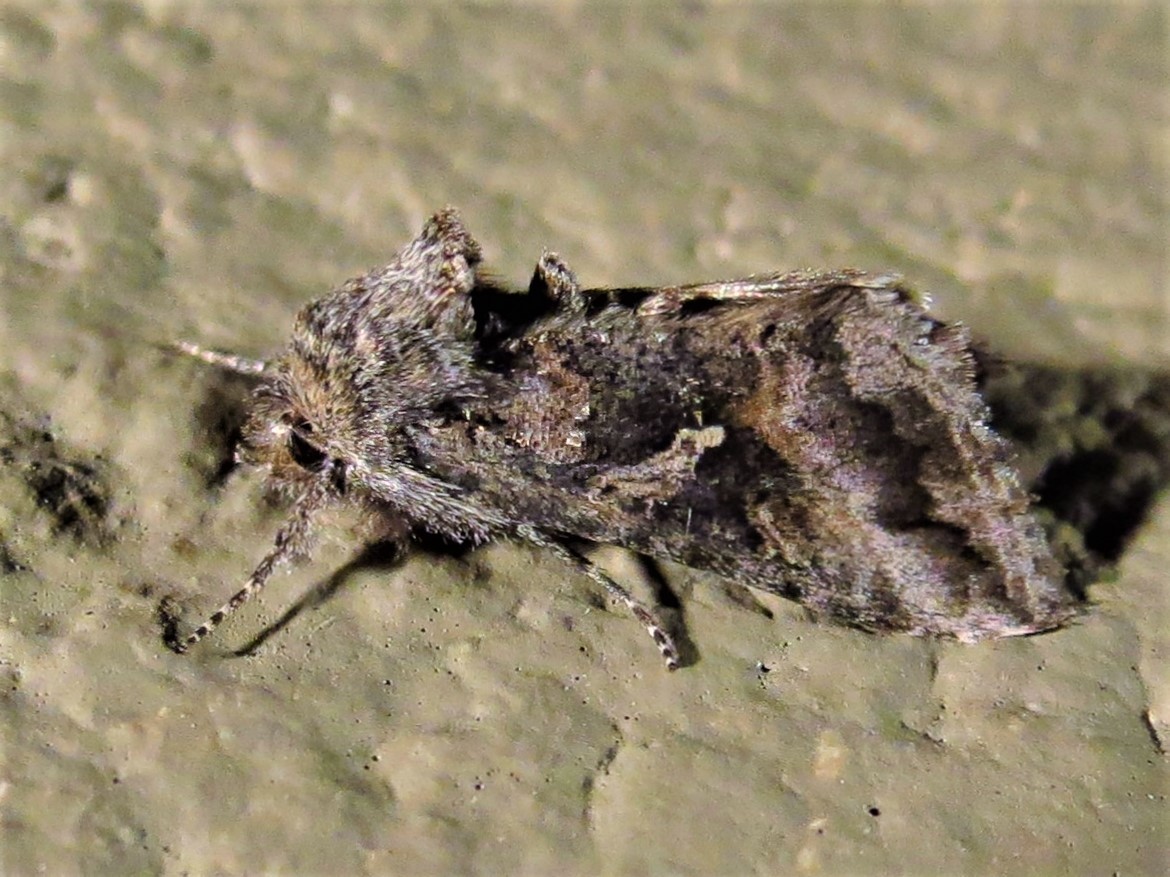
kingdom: Animalia
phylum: Arthropoda
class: Insecta
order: Lepidoptera
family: Noctuidae
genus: Rachiplusia
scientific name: Rachiplusia ou
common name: Gray looper moth
